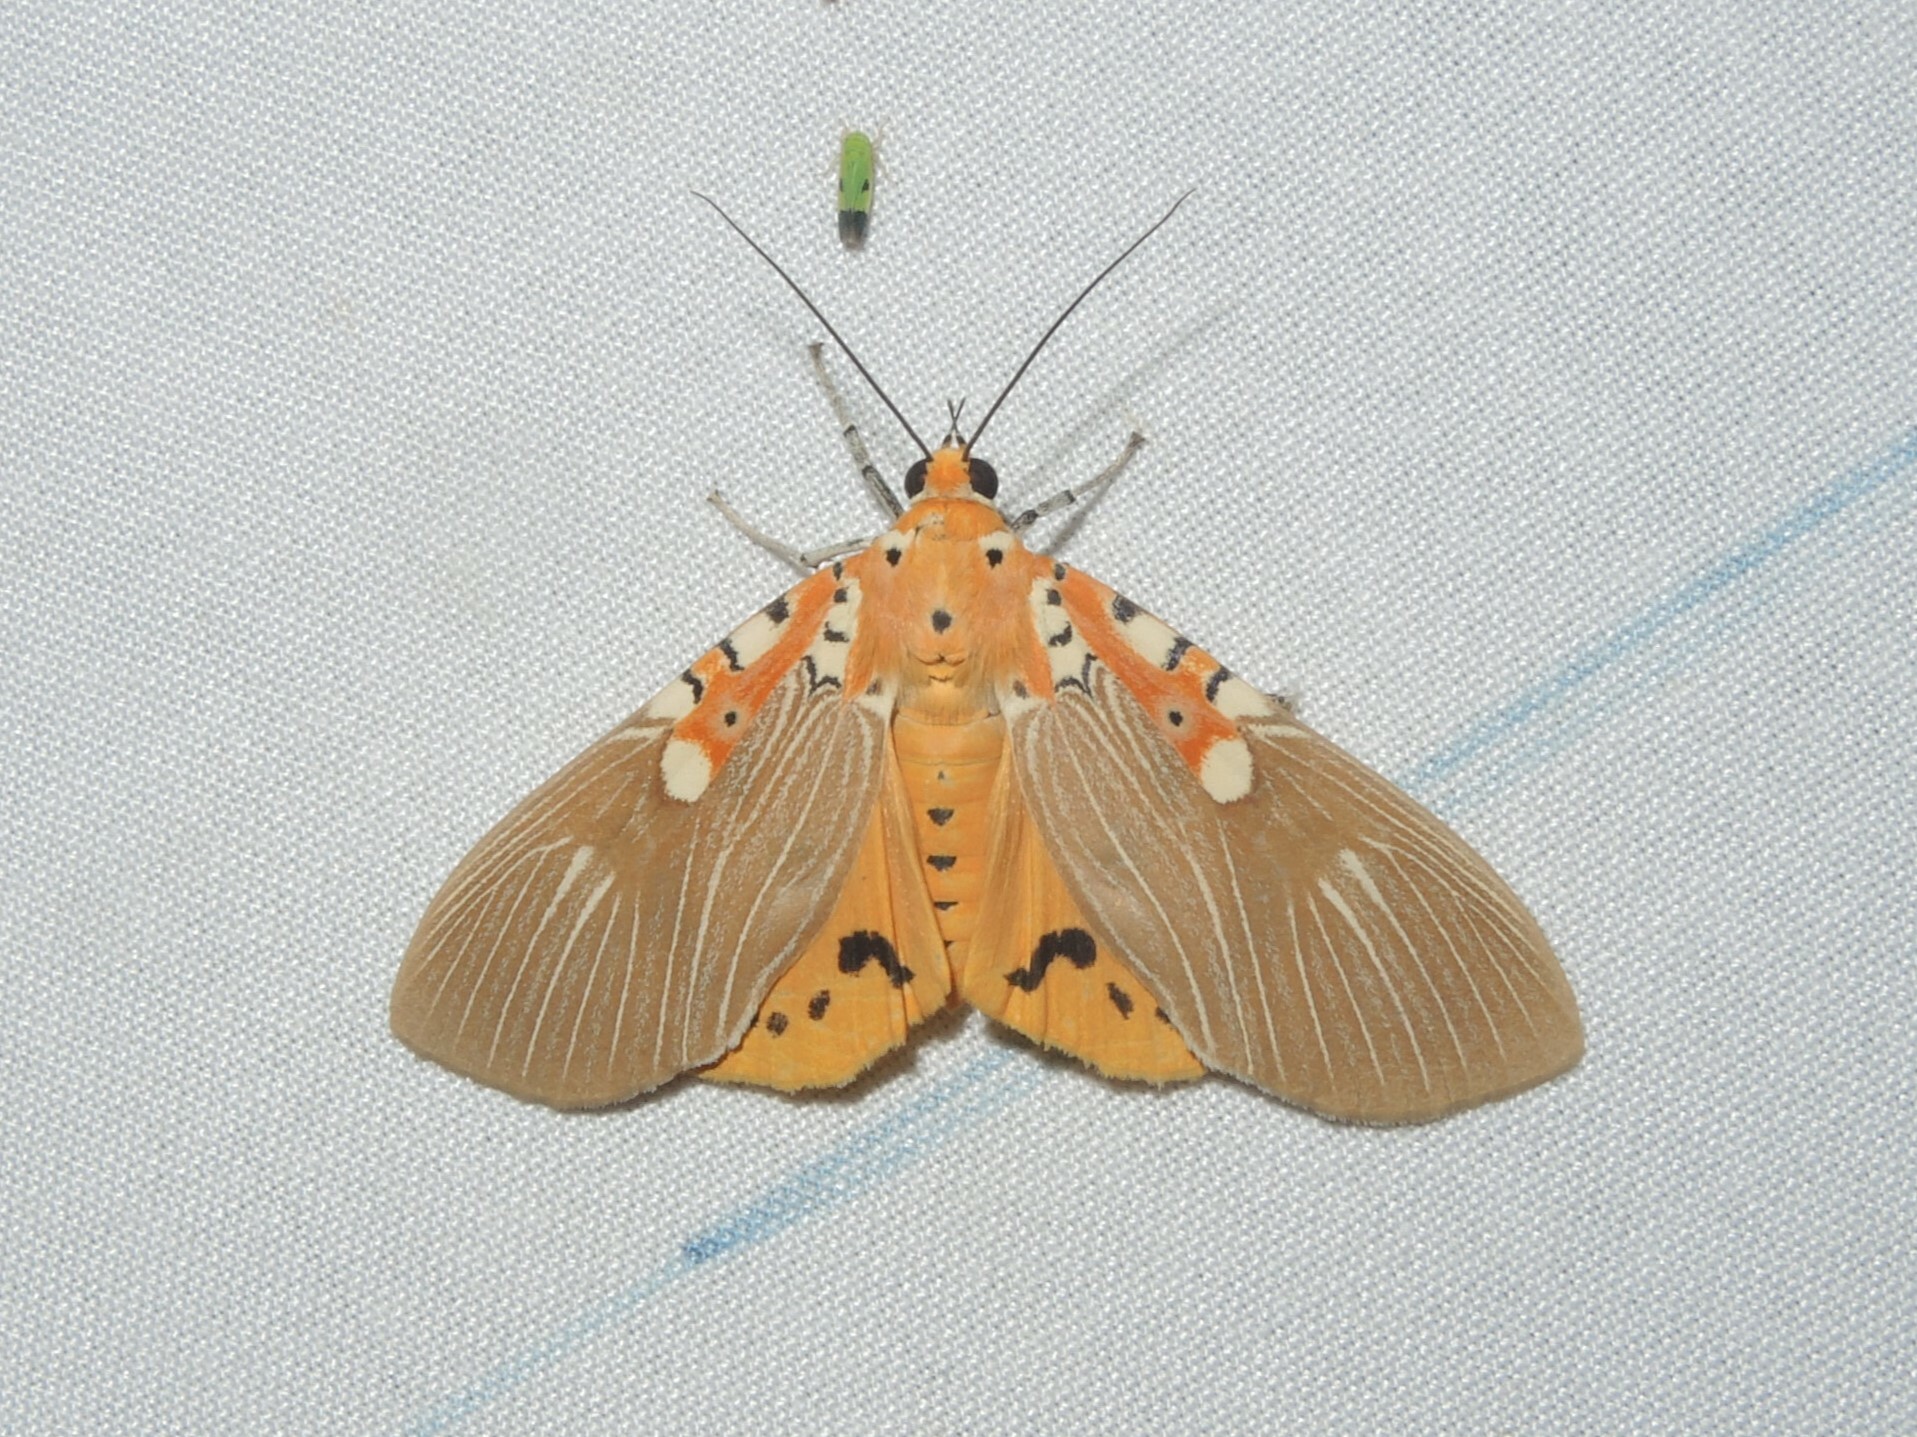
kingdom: Animalia
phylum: Arthropoda
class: Insecta
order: Lepidoptera
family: Erebidae
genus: Asota
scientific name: Asota ficus
